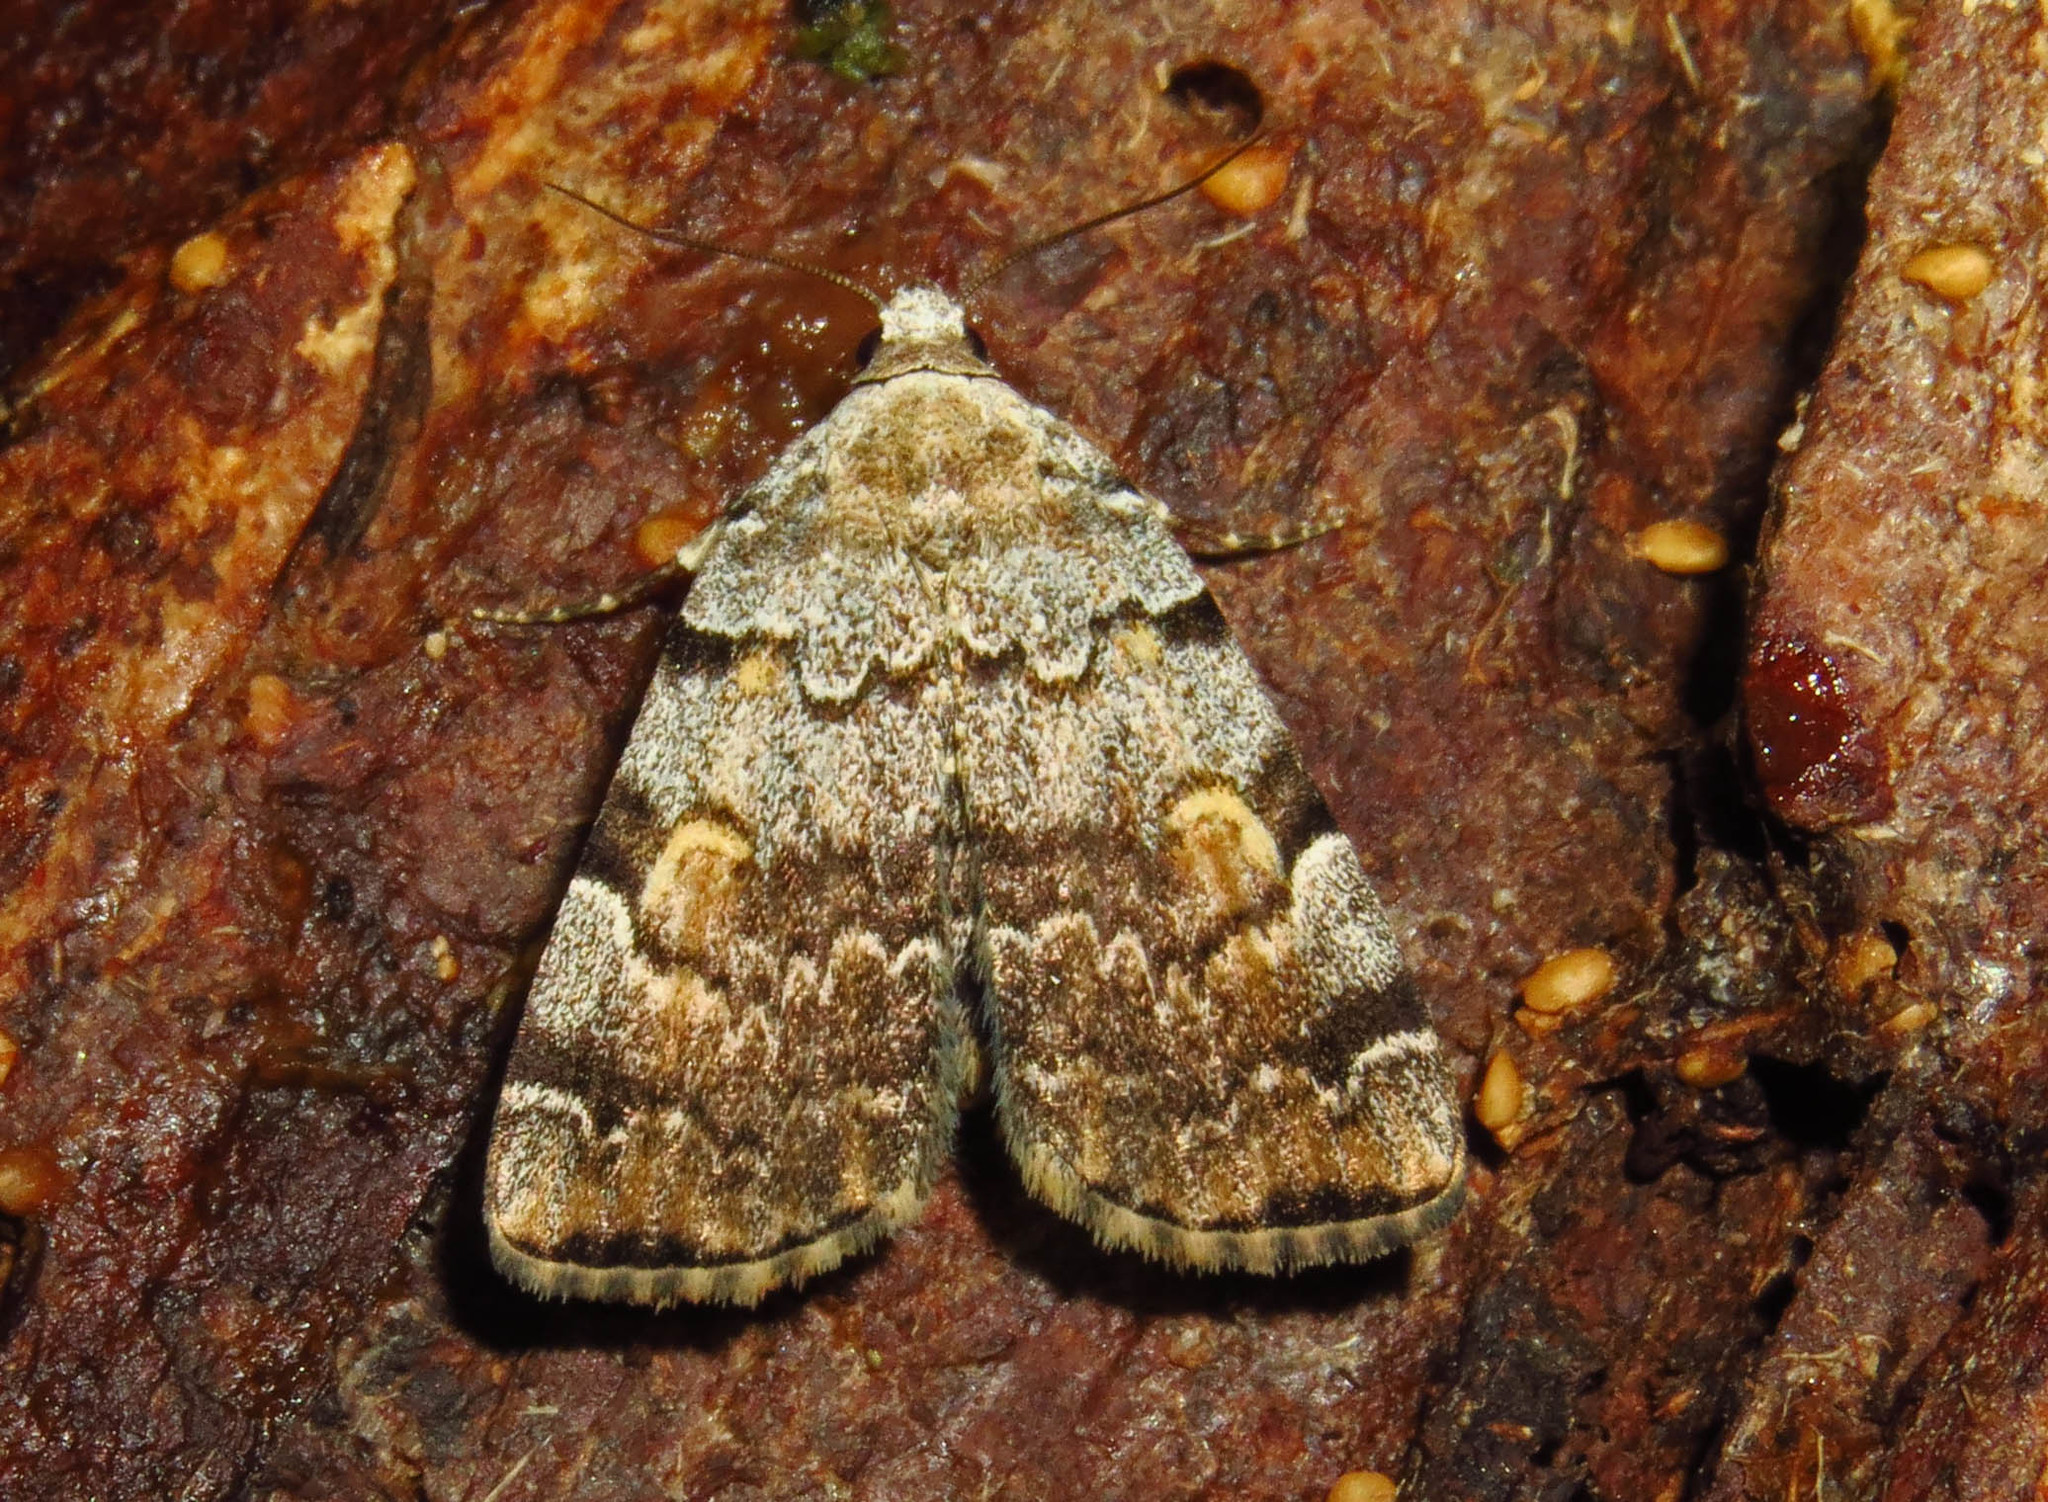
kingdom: Animalia
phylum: Arthropoda
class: Insecta
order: Lepidoptera
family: Erebidae
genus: Idia
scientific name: Idia americalis
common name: American idia moth
